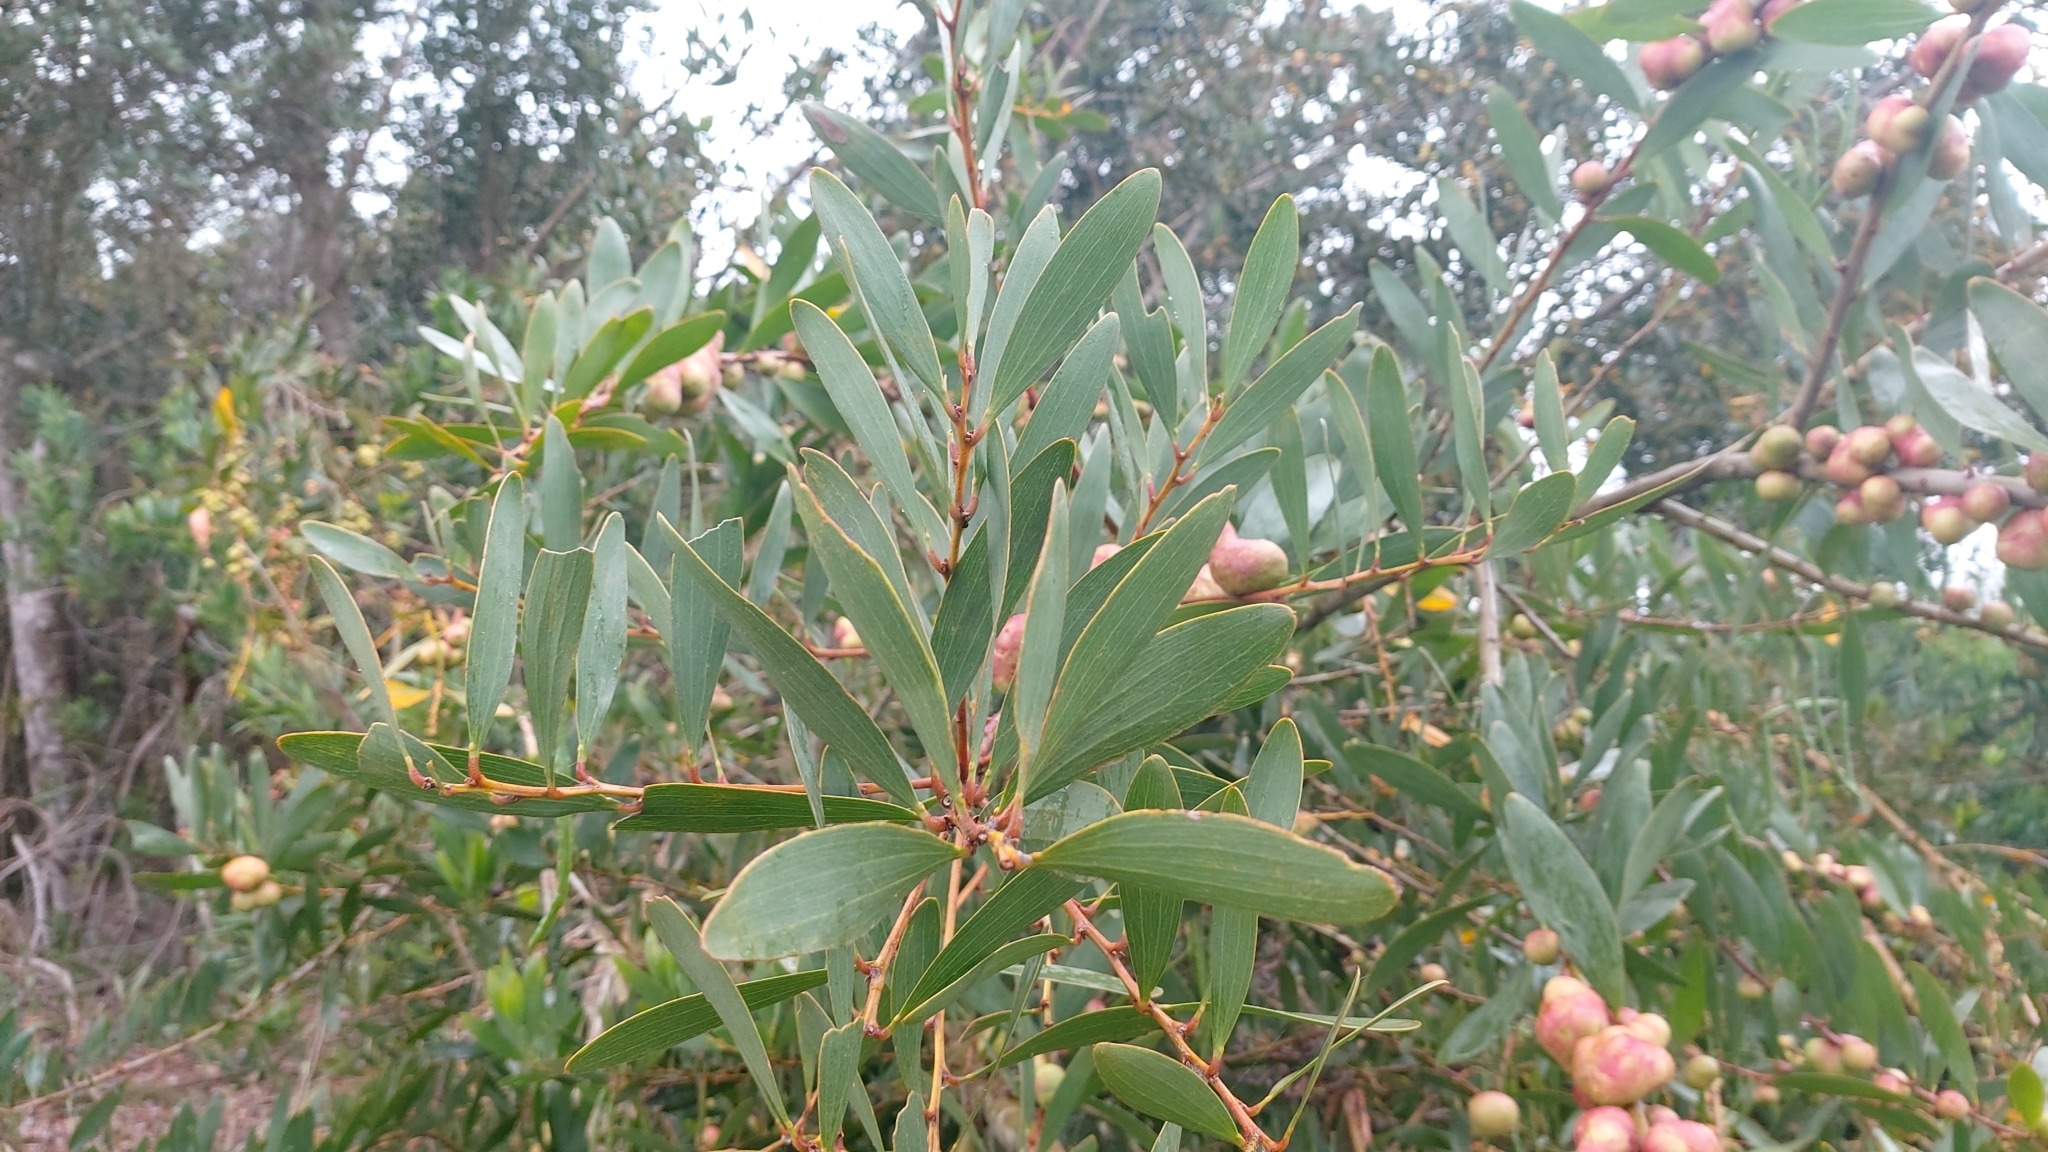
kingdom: Plantae
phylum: Tracheophyta
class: Magnoliopsida
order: Fabales
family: Fabaceae
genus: Acacia
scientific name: Acacia longifolia
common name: Sydney golden wattle
